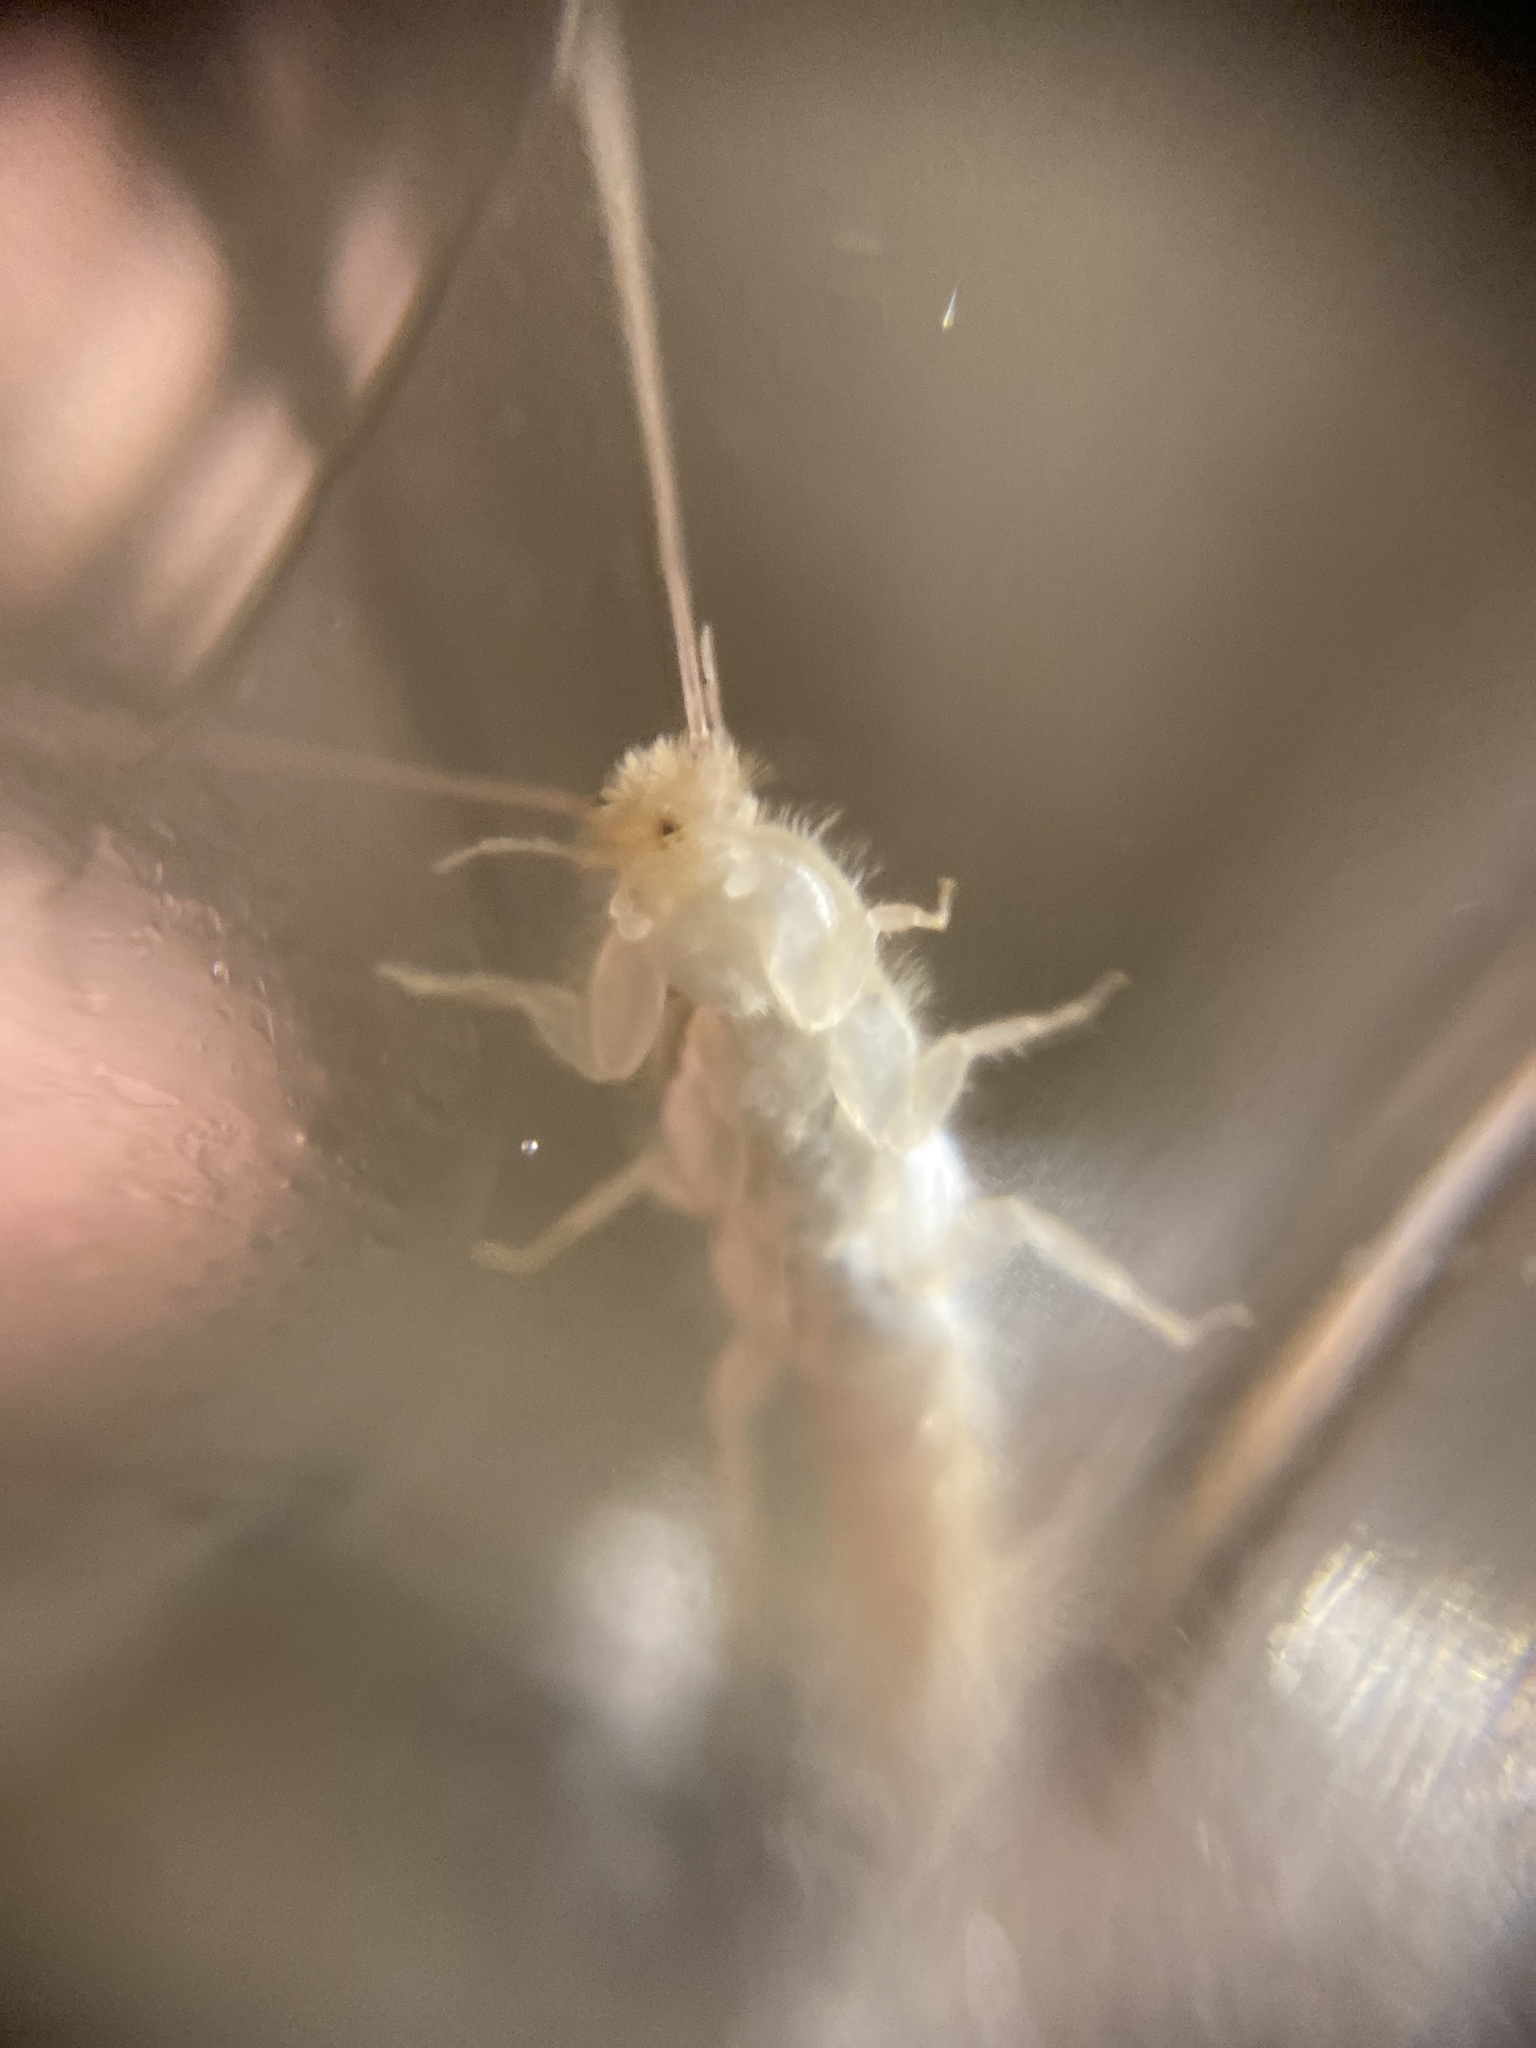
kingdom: Animalia
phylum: Arthropoda
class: Insecta
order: Zygentoma
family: Lepismatidae
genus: Ctenolepisma
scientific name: Ctenolepisma longicaudatum
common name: Silverfish
